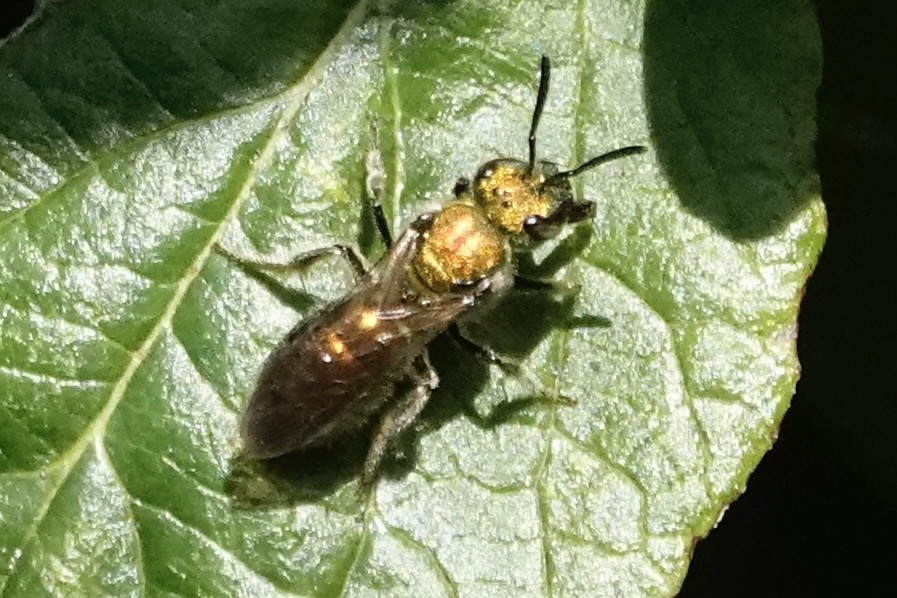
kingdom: Animalia
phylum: Arthropoda
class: Insecta
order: Hymenoptera
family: Halictidae
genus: Augochlora
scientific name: Augochlora pura
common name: Pure green sweat bee
